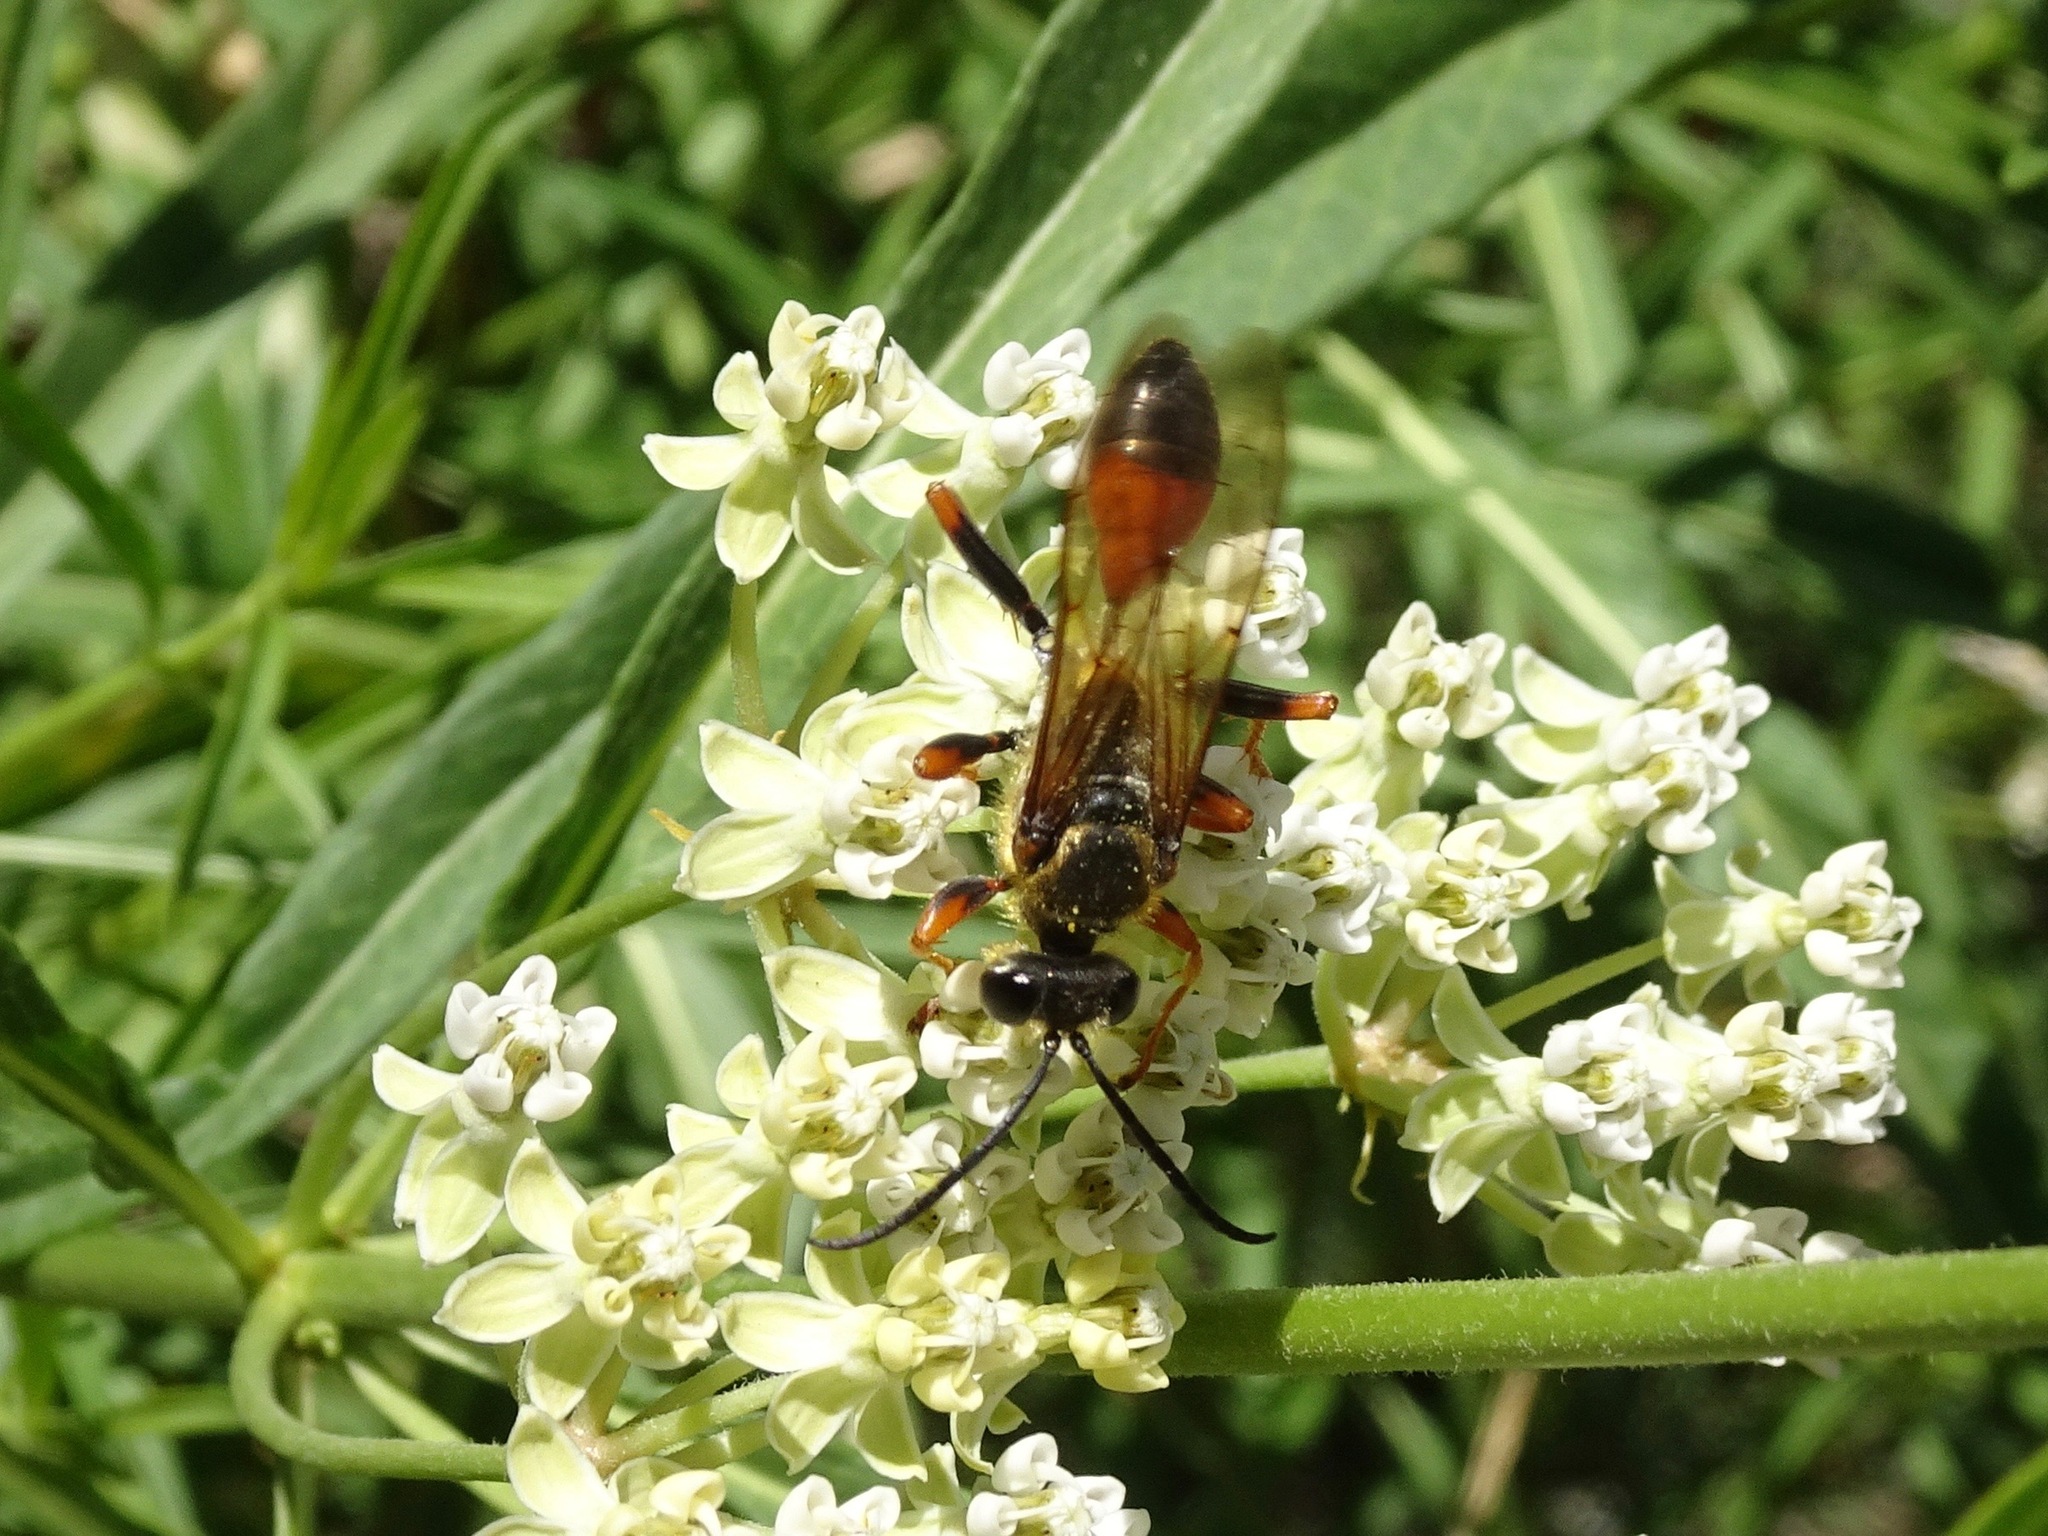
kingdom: Animalia
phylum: Arthropoda
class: Insecta
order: Hymenoptera
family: Sphecidae
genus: Sphex
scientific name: Sphex ichneumoneus
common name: Great golden digger wasp
